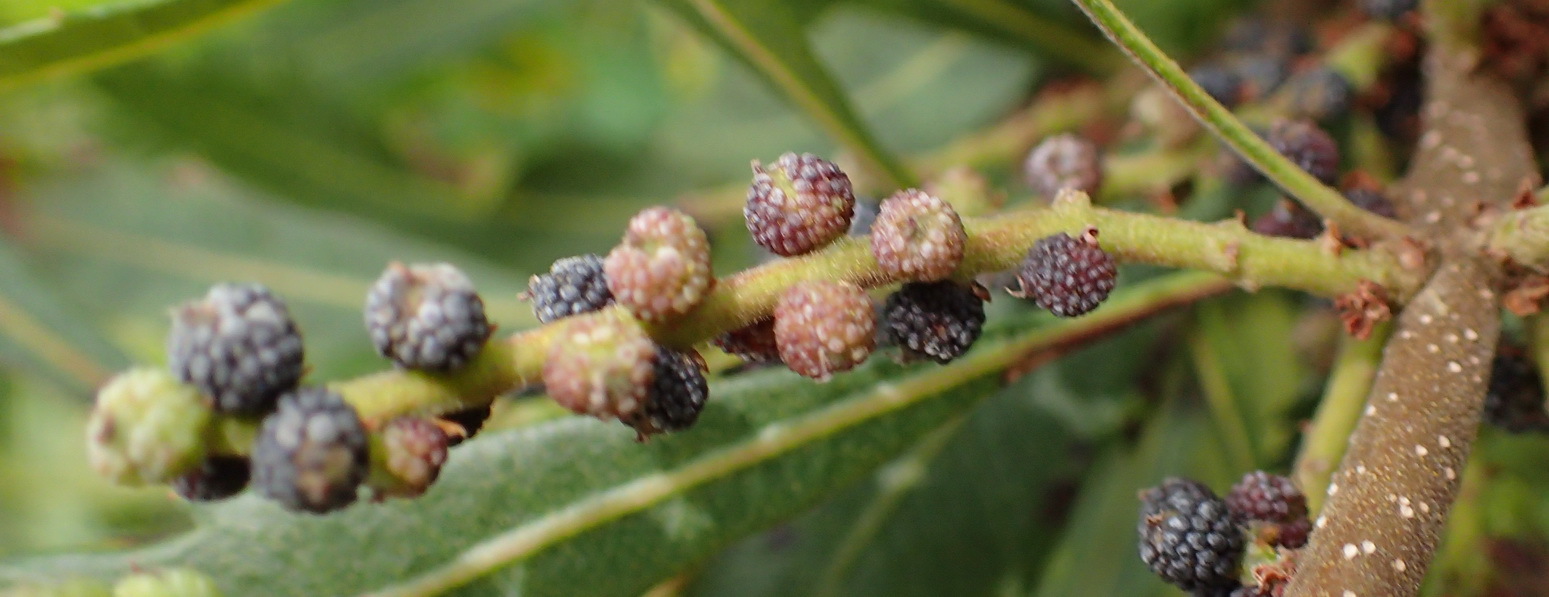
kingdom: Plantae
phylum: Tracheophyta
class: Magnoliopsida
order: Fagales
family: Myricaceae
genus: Morella
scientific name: Morella serrata
